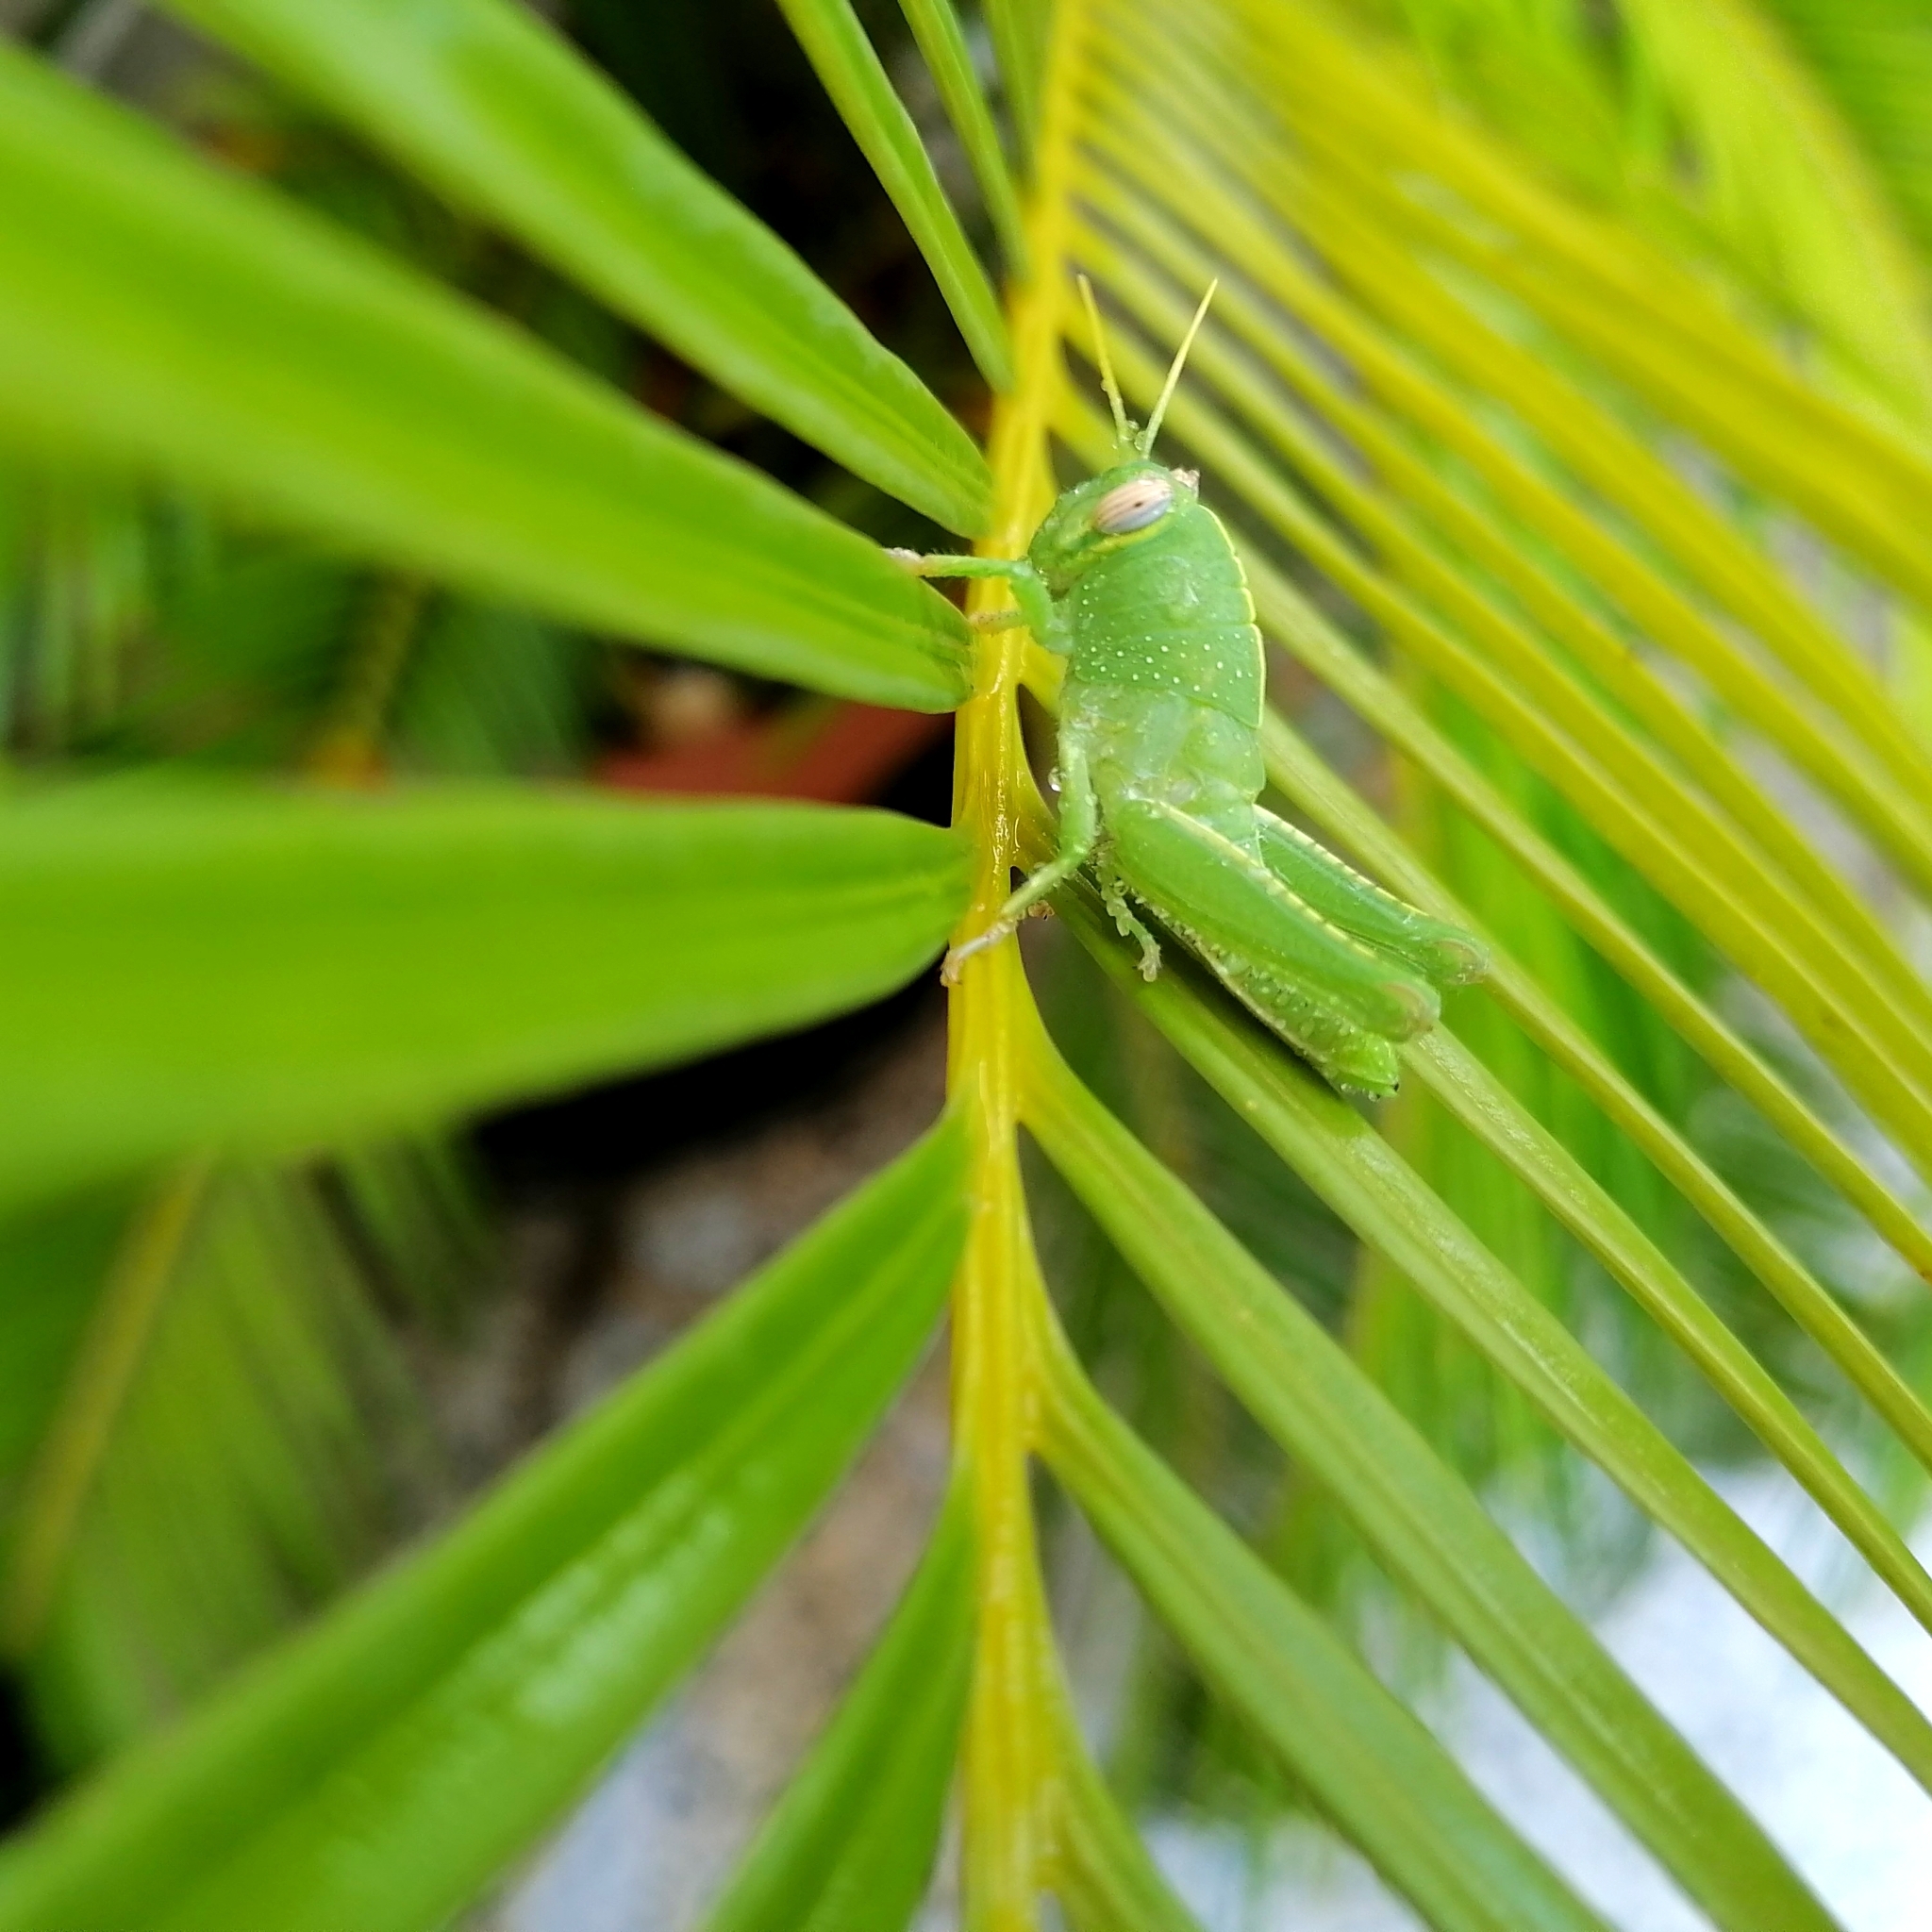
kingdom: Animalia
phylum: Arthropoda
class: Insecta
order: Orthoptera
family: Acrididae
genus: Anacridium
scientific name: Anacridium aegyptium
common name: Egyptian grasshopper
